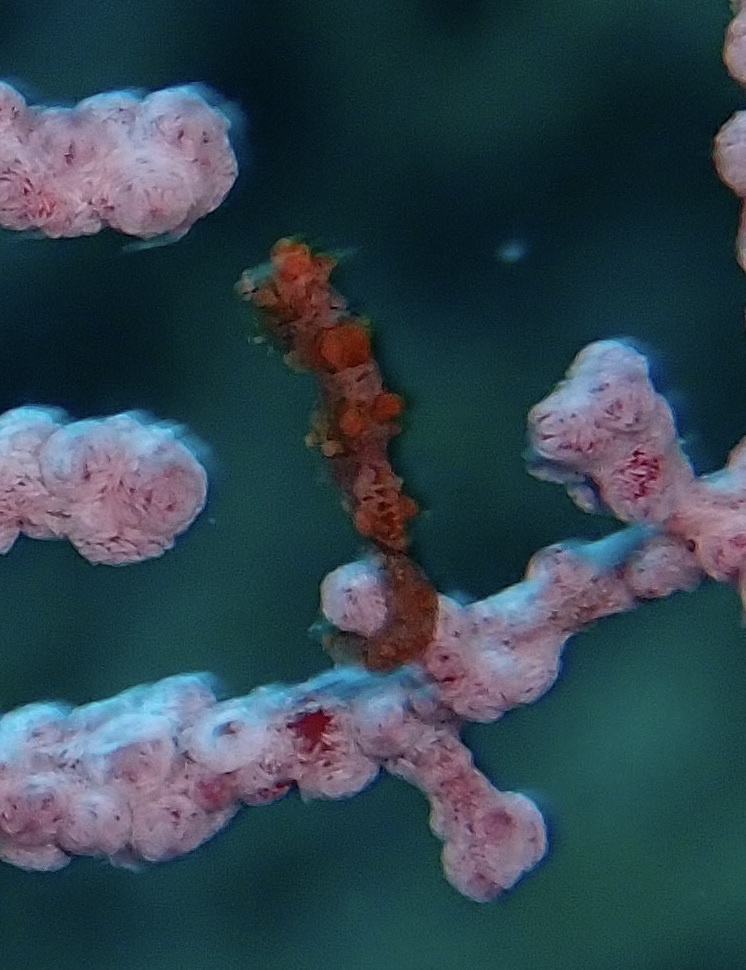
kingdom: Animalia
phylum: Chordata
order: Syngnathiformes
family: Syngnathidae
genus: Hippocampus
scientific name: Hippocampus bargibanti
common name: Bargibant's seahorse
